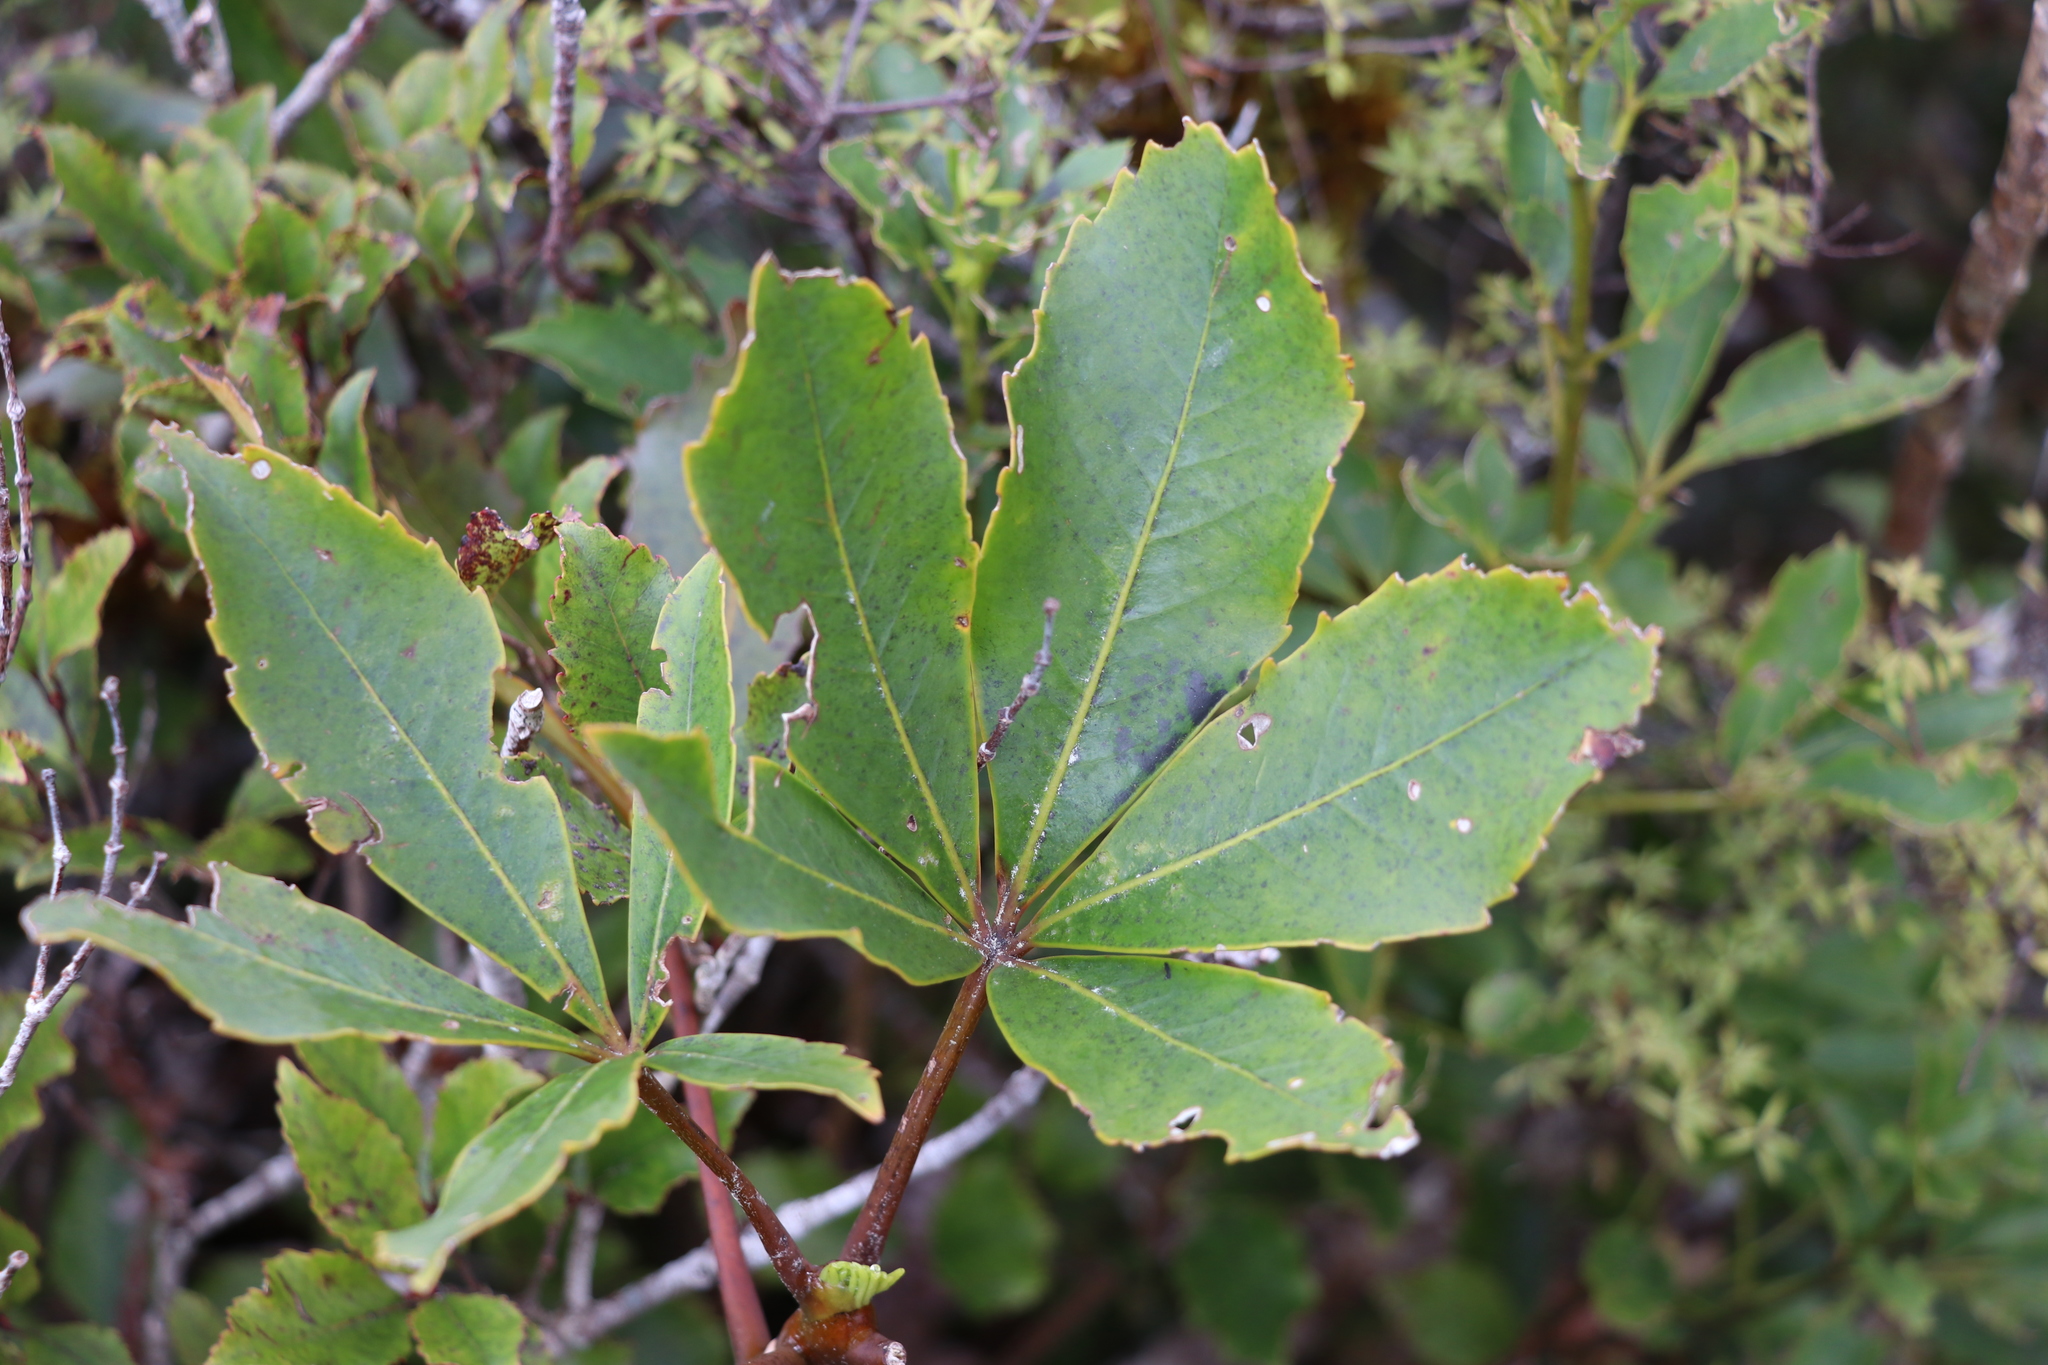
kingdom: Plantae
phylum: Tracheophyta
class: Magnoliopsida
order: Apiales
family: Araliaceae
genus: Neopanax
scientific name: Neopanax colensoi
